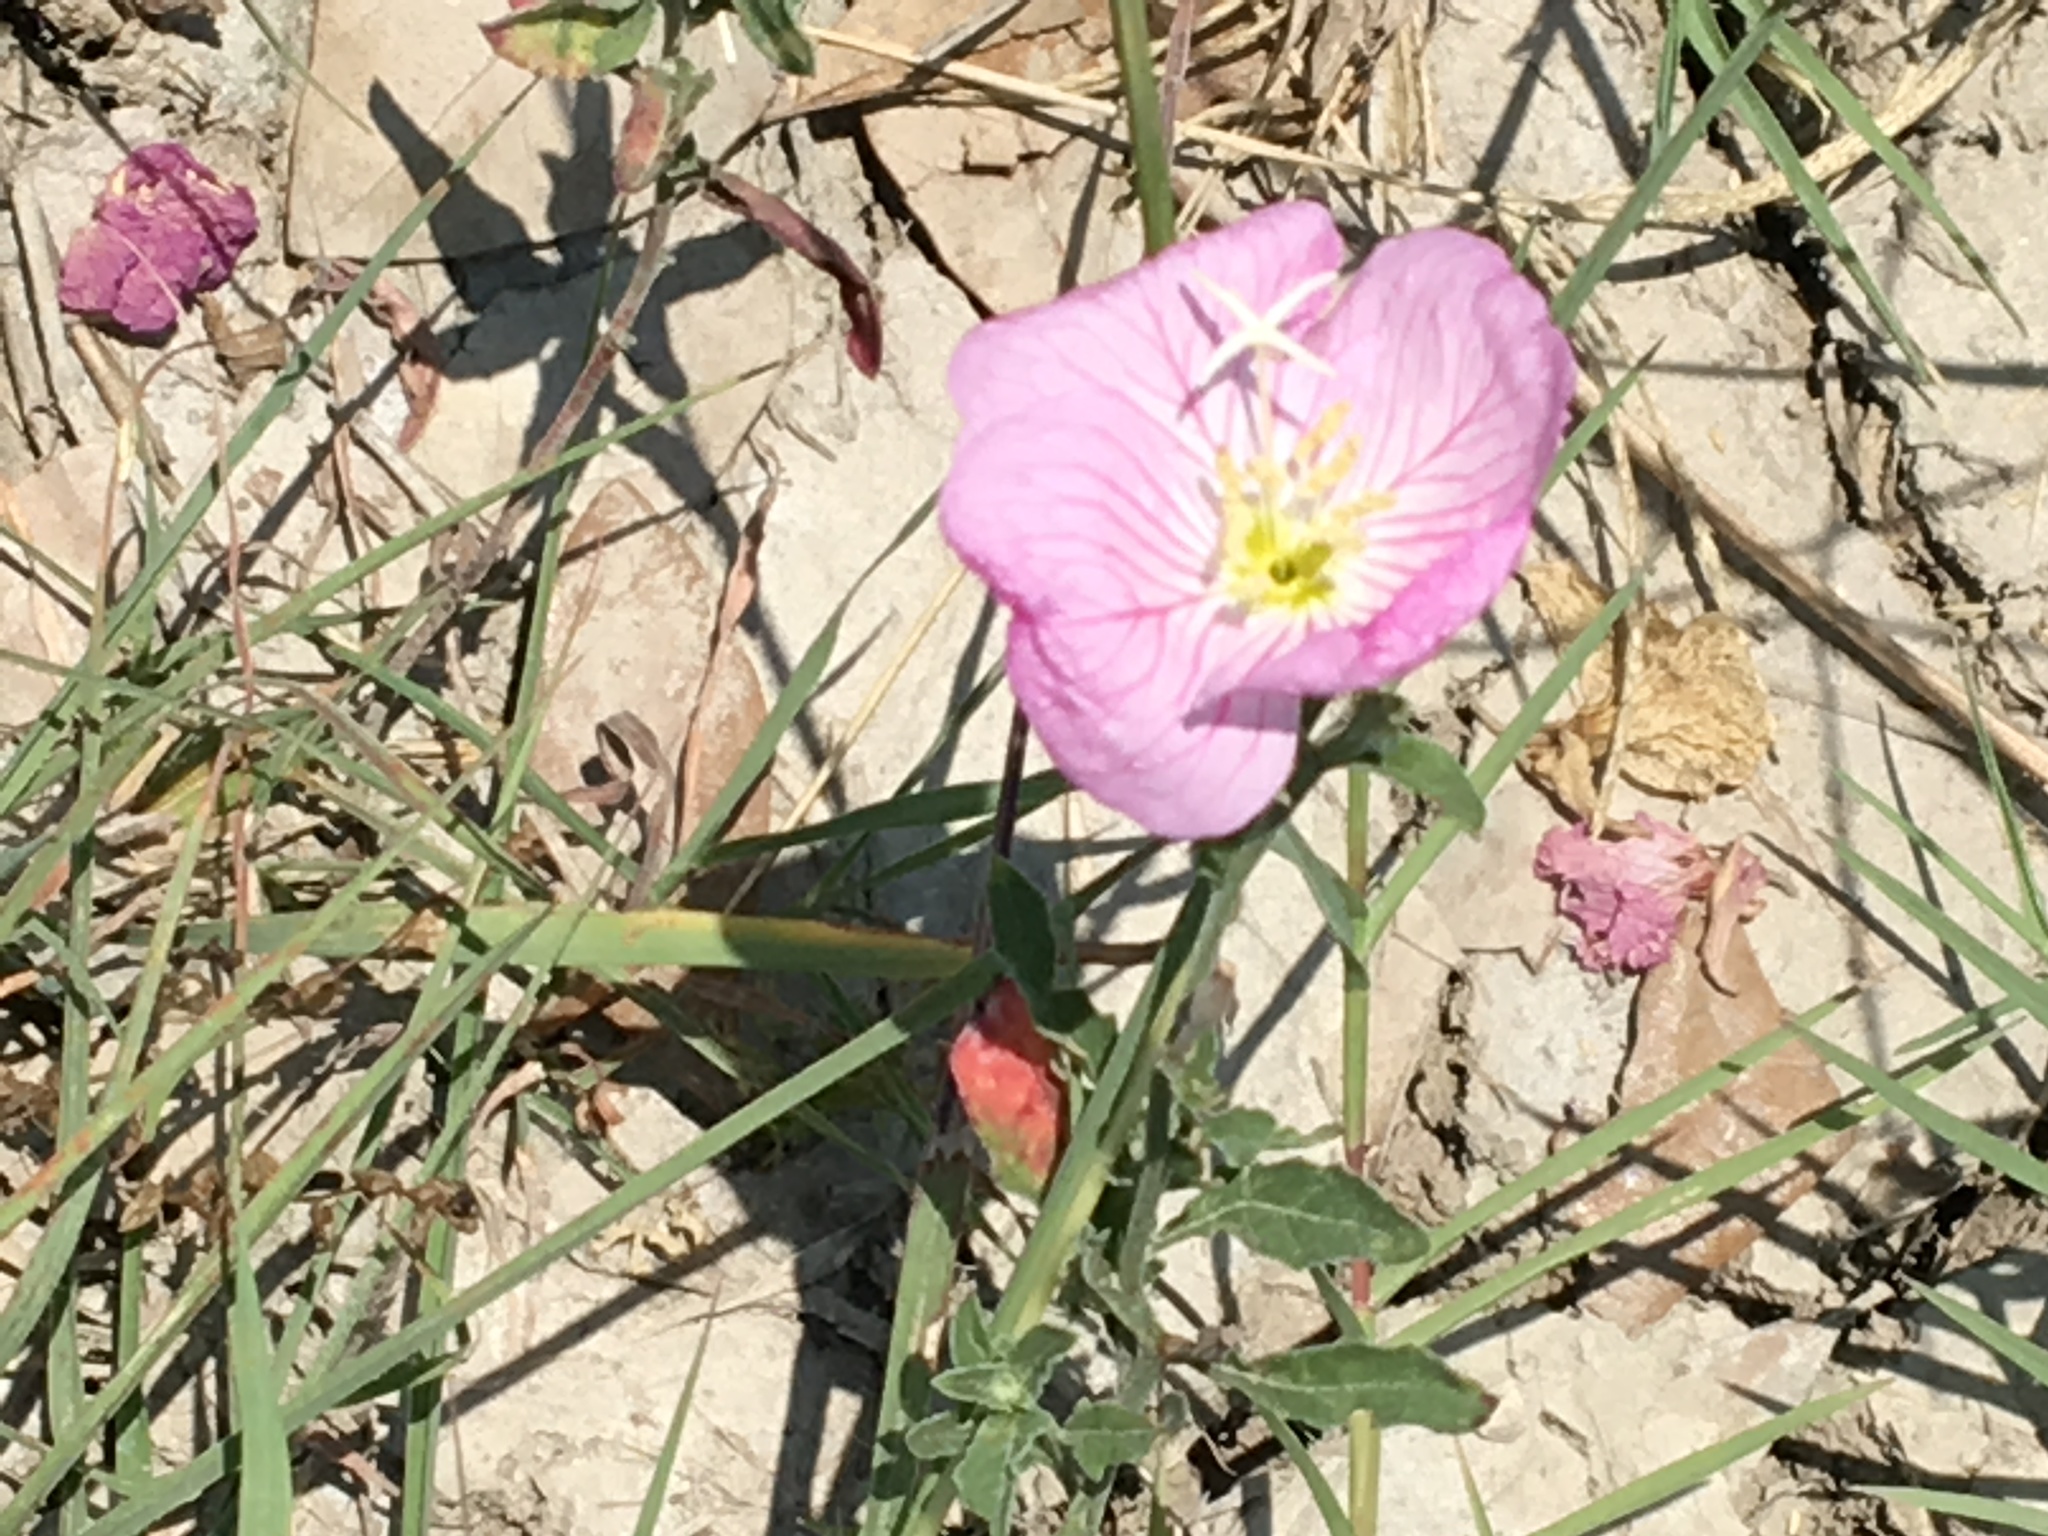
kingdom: Plantae
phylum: Tracheophyta
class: Magnoliopsida
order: Myrtales
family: Onagraceae
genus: Oenothera
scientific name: Oenothera speciosa
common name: White evening-primrose
